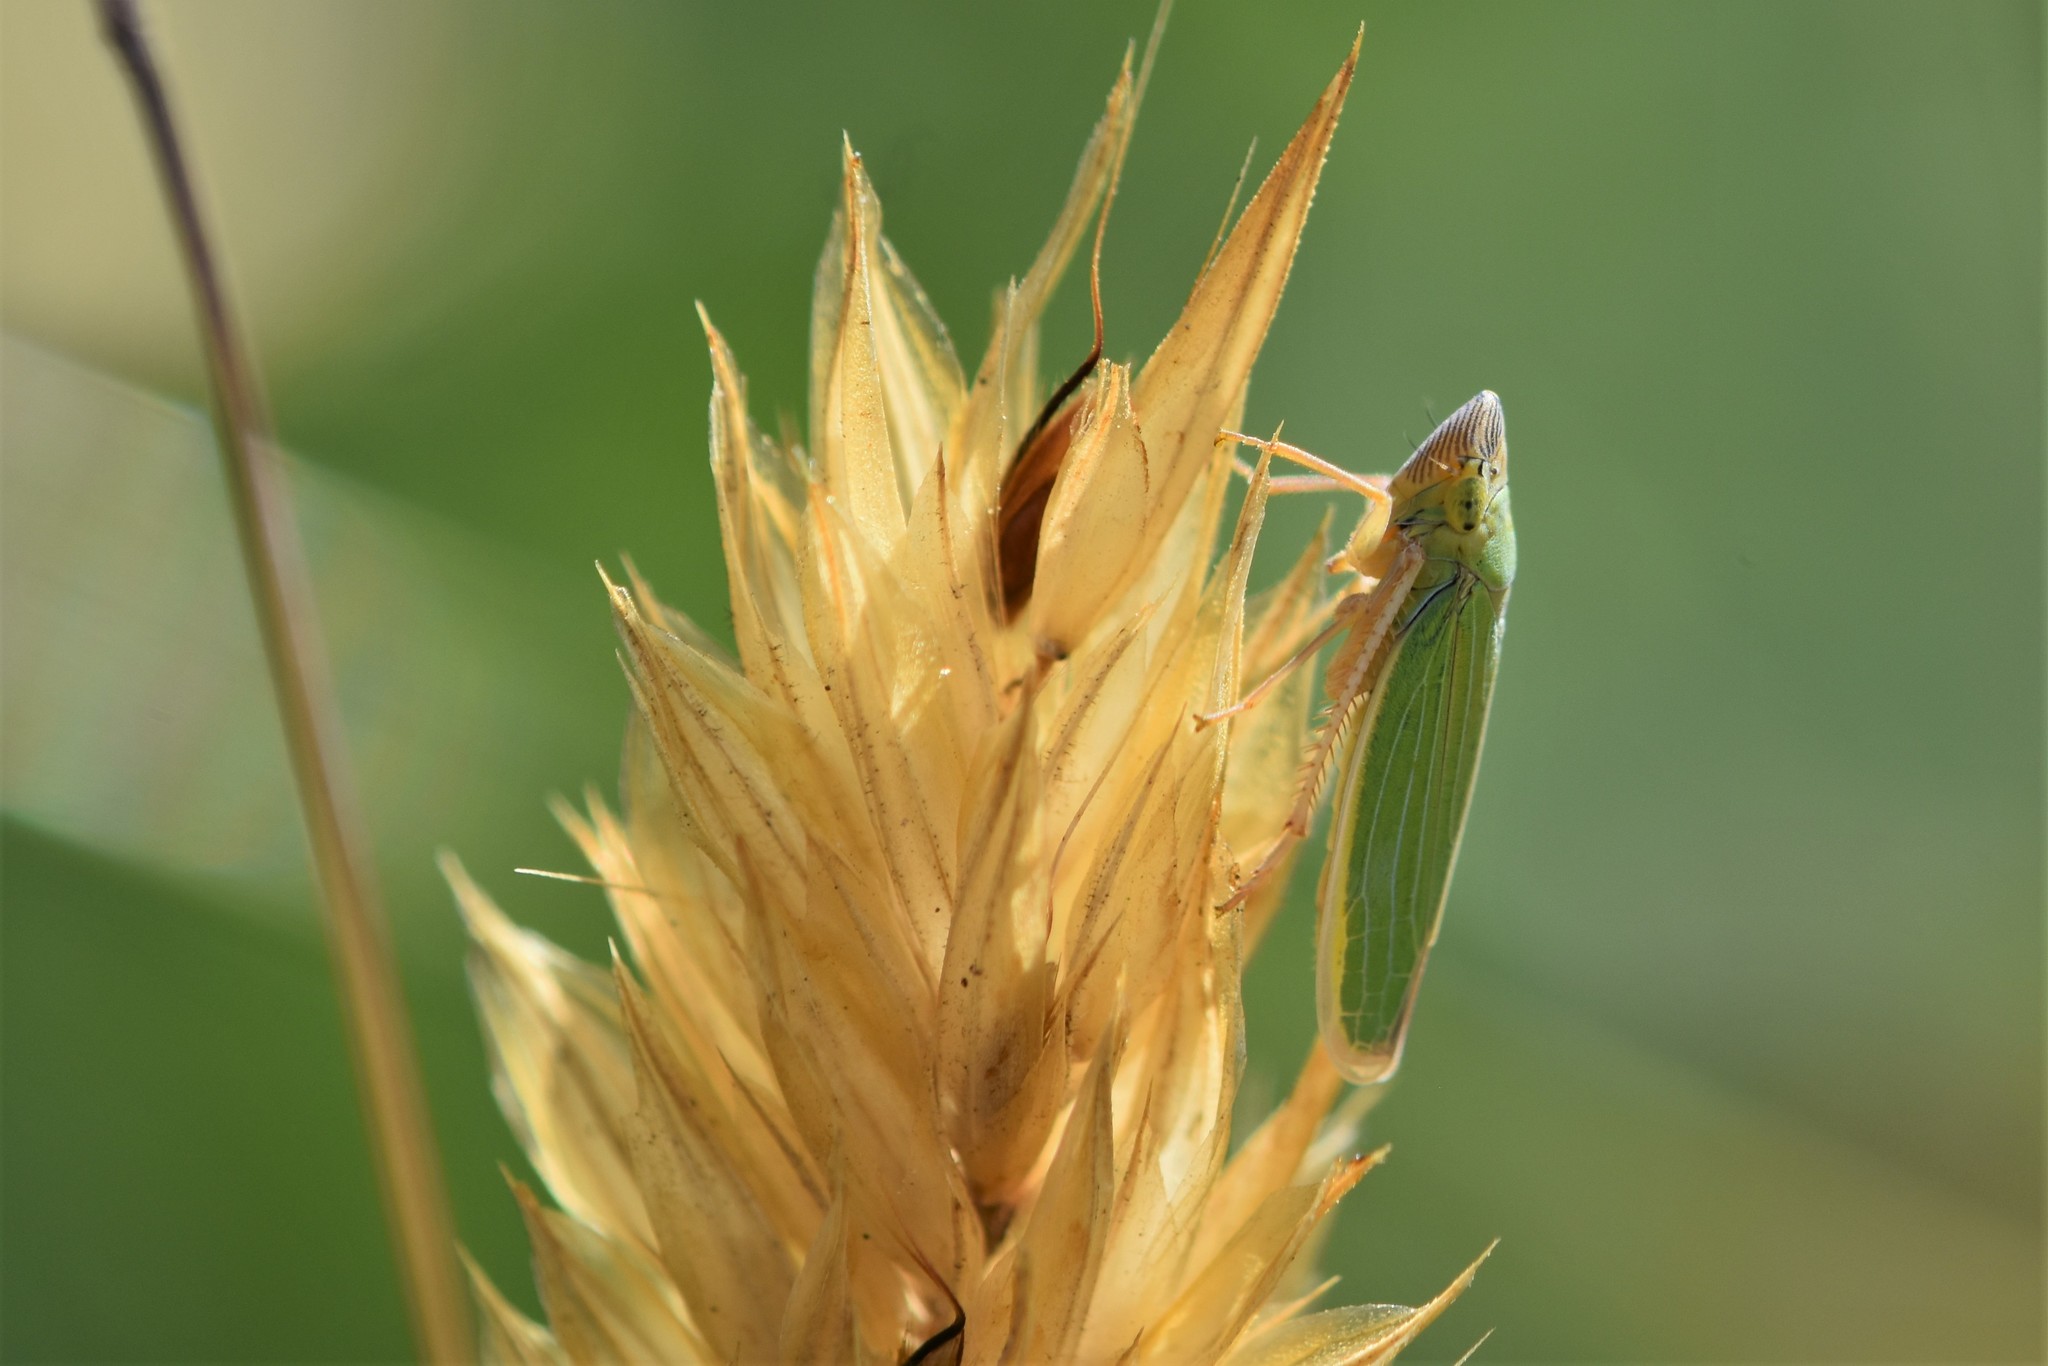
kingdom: Animalia
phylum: Arthropoda
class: Insecta
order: Hemiptera
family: Cicadellidae
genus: Draeculacephala
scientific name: Draeculacephala crassicornis
